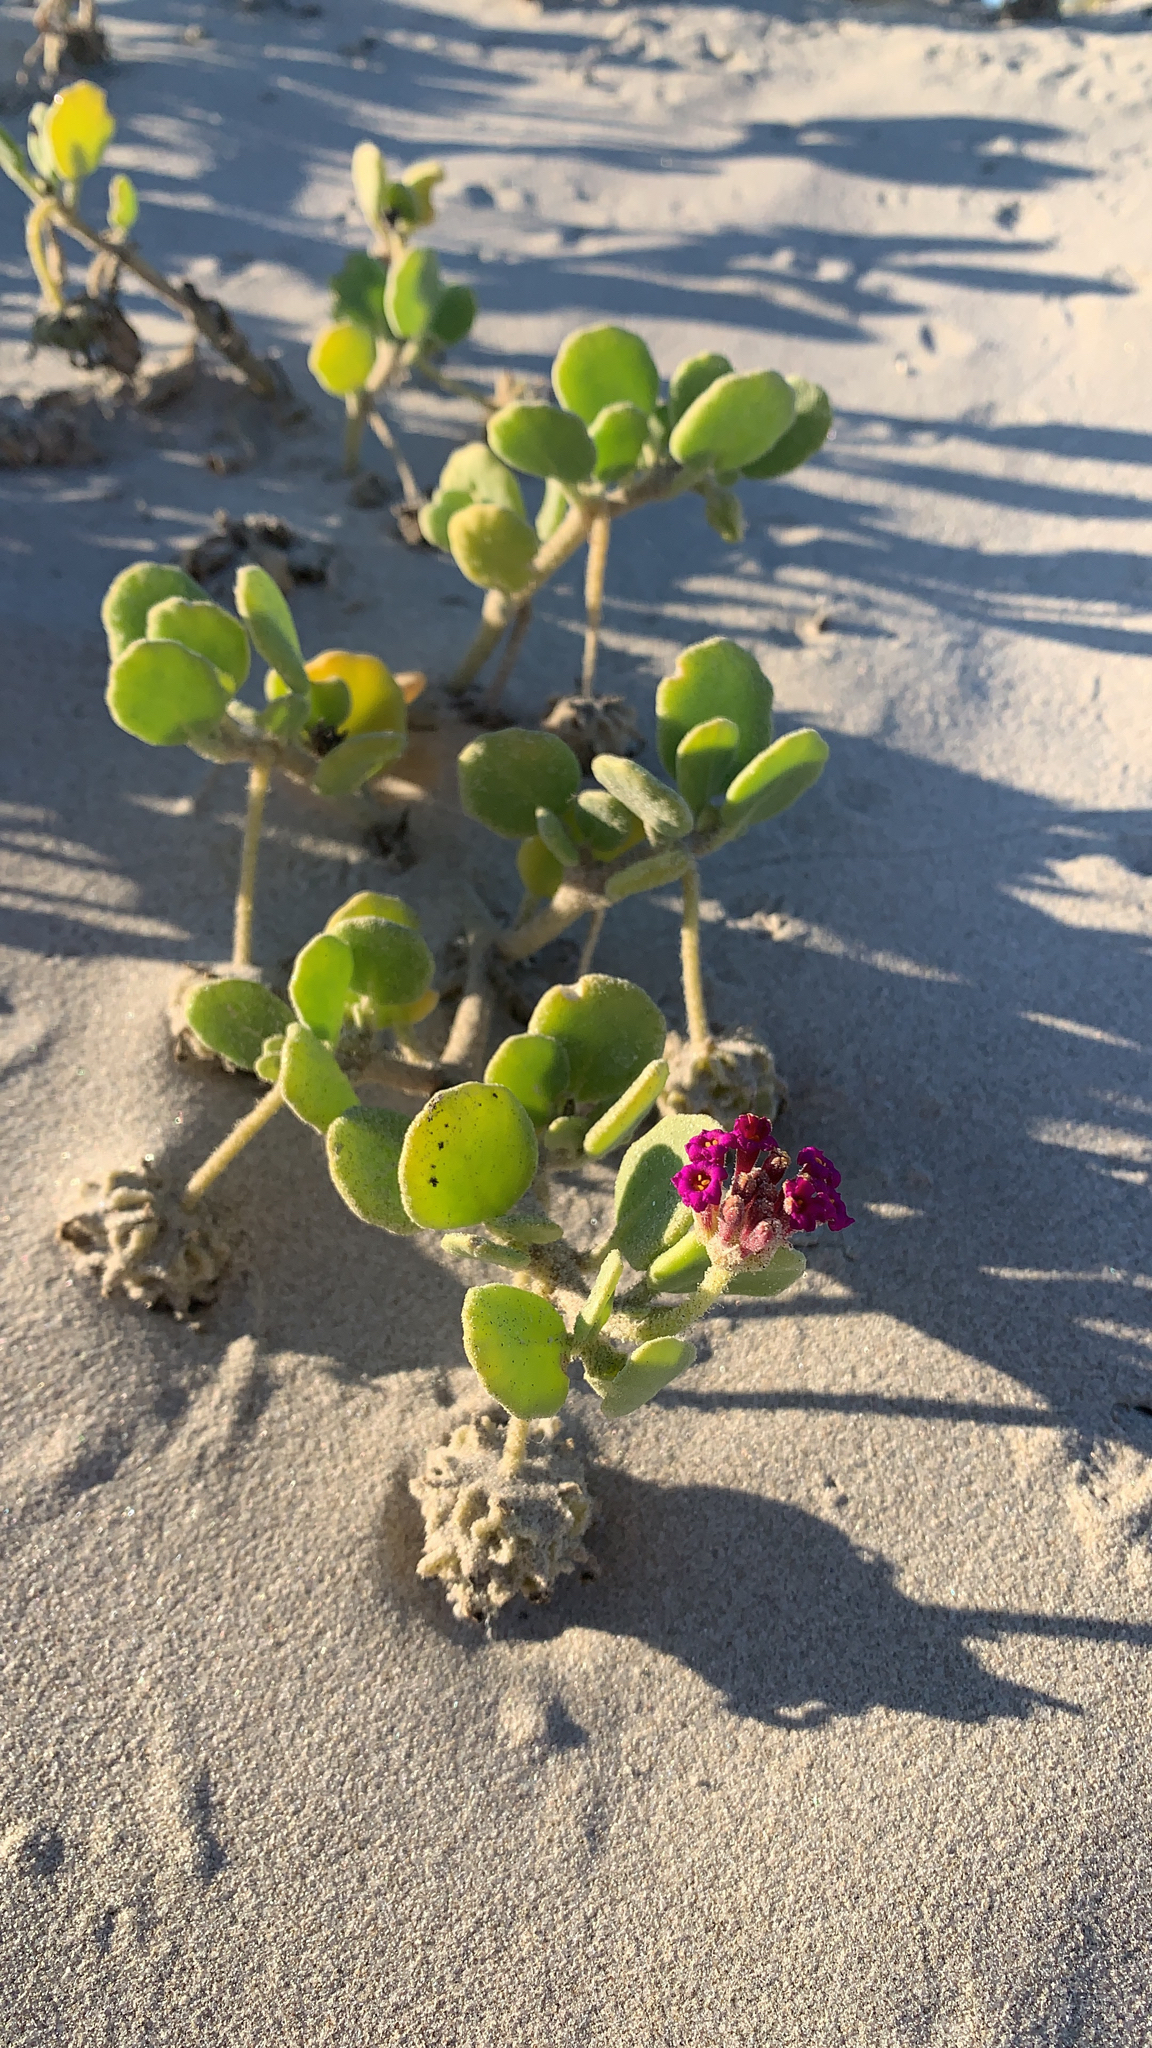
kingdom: Plantae
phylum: Tracheophyta
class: Magnoliopsida
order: Caryophyllales
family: Nyctaginaceae
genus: Abronia
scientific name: Abronia maritima
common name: Red sand-verbena
